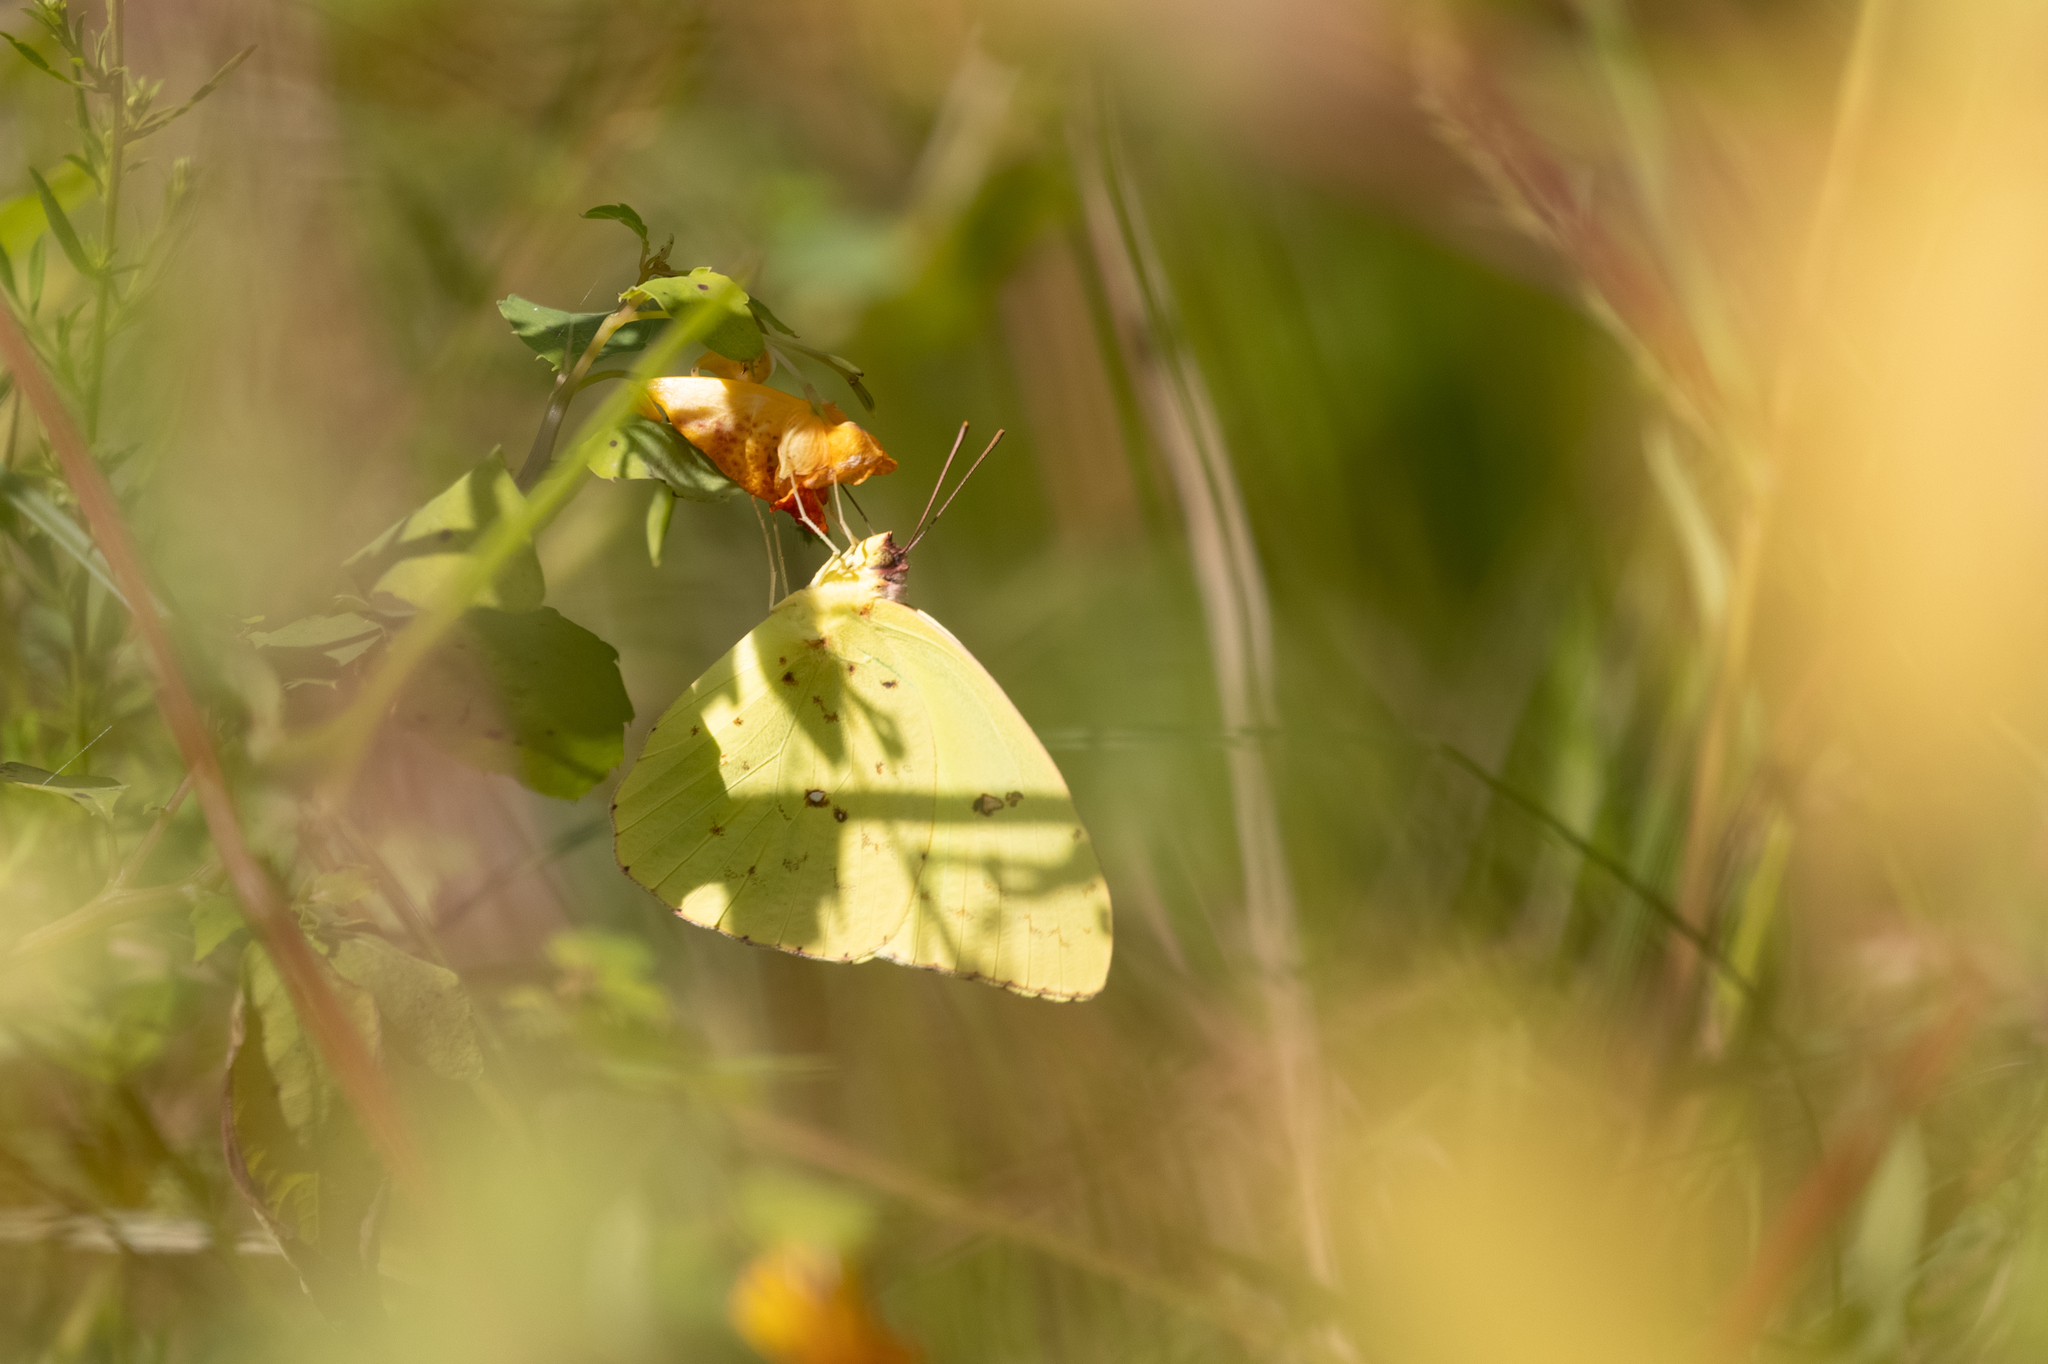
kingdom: Animalia
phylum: Arthropoda
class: Insecta
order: Lepidoptera
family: Pieridae
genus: Phoebis
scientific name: Phoebis sennae
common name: Cloudless sulphur
